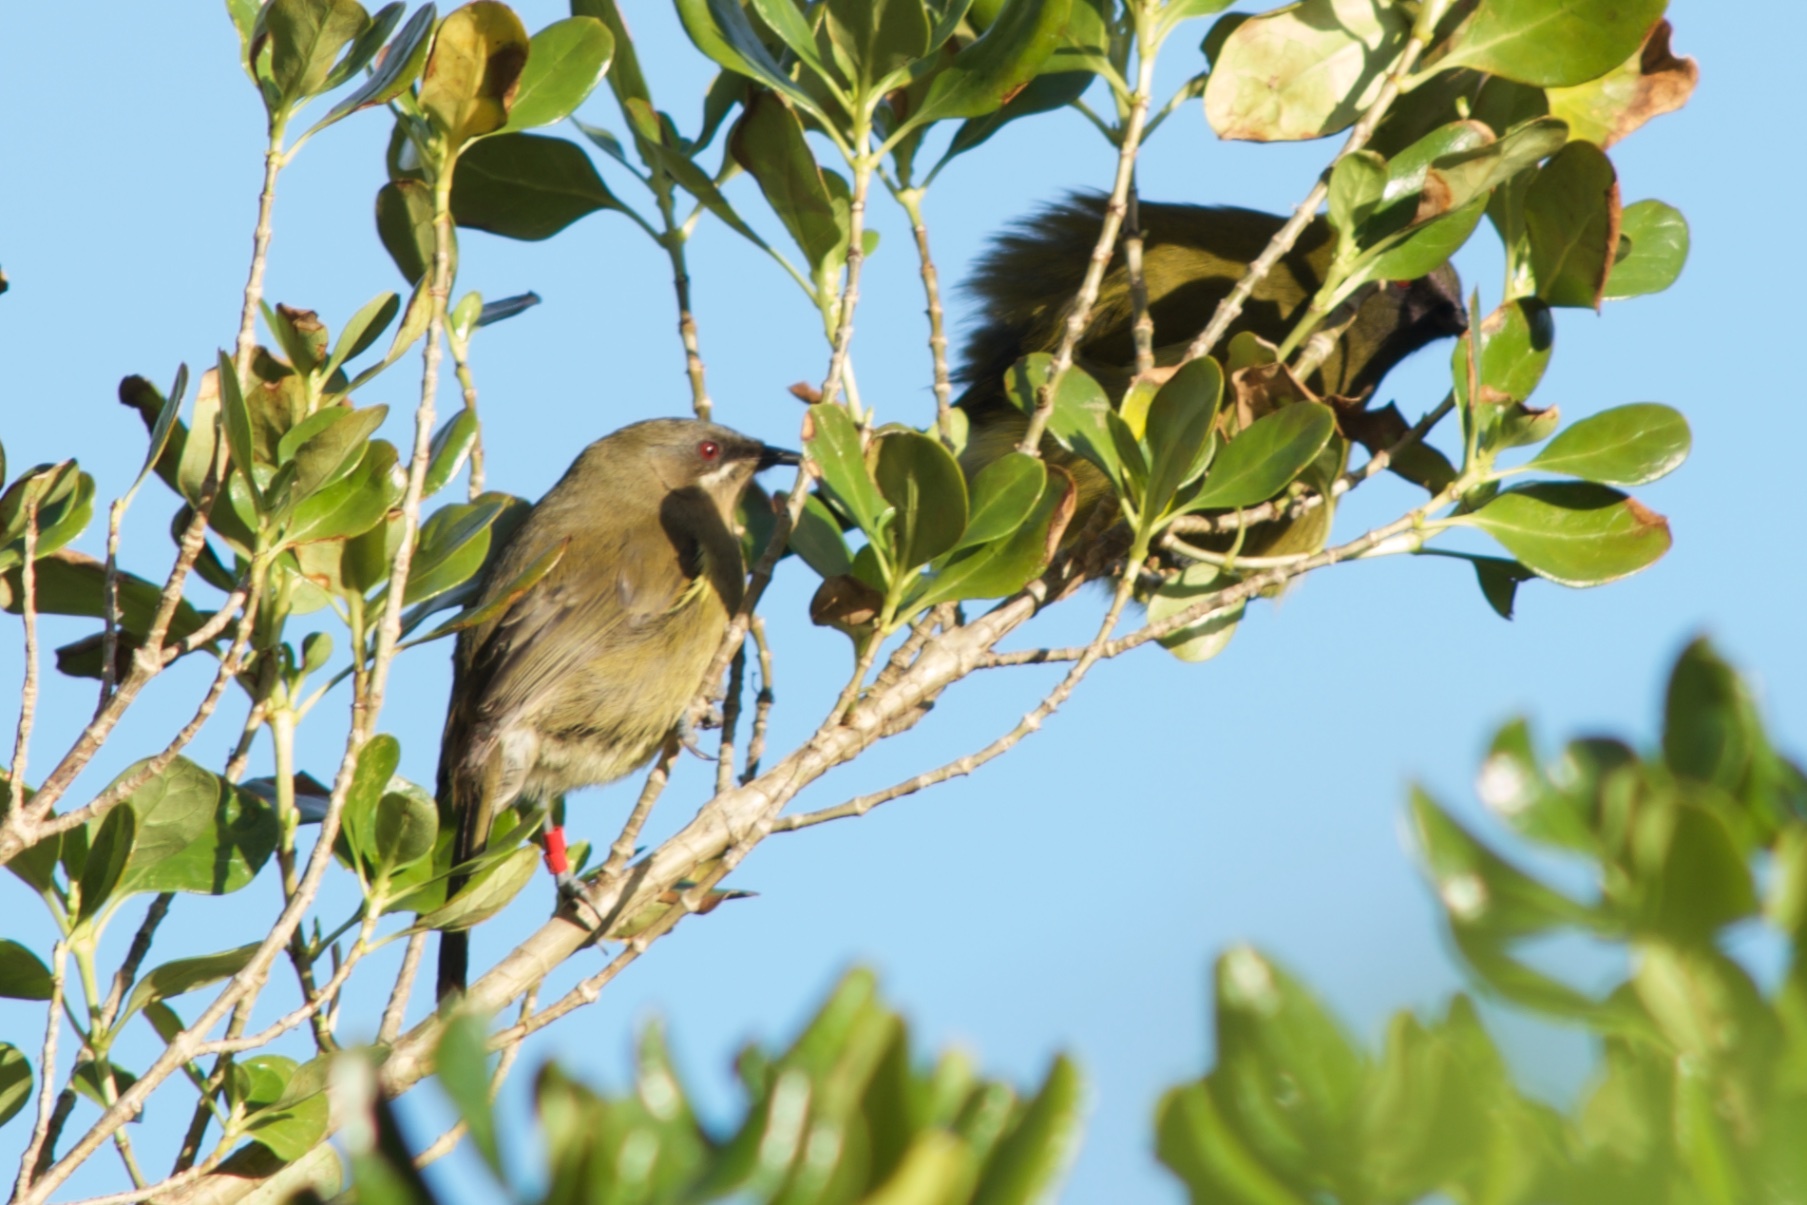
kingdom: Animalia
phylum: Chordata
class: Aves
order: Passeriformes
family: Meliphagidae
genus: Anthornis
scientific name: Anthornis melanura
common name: New zealand bellbird
